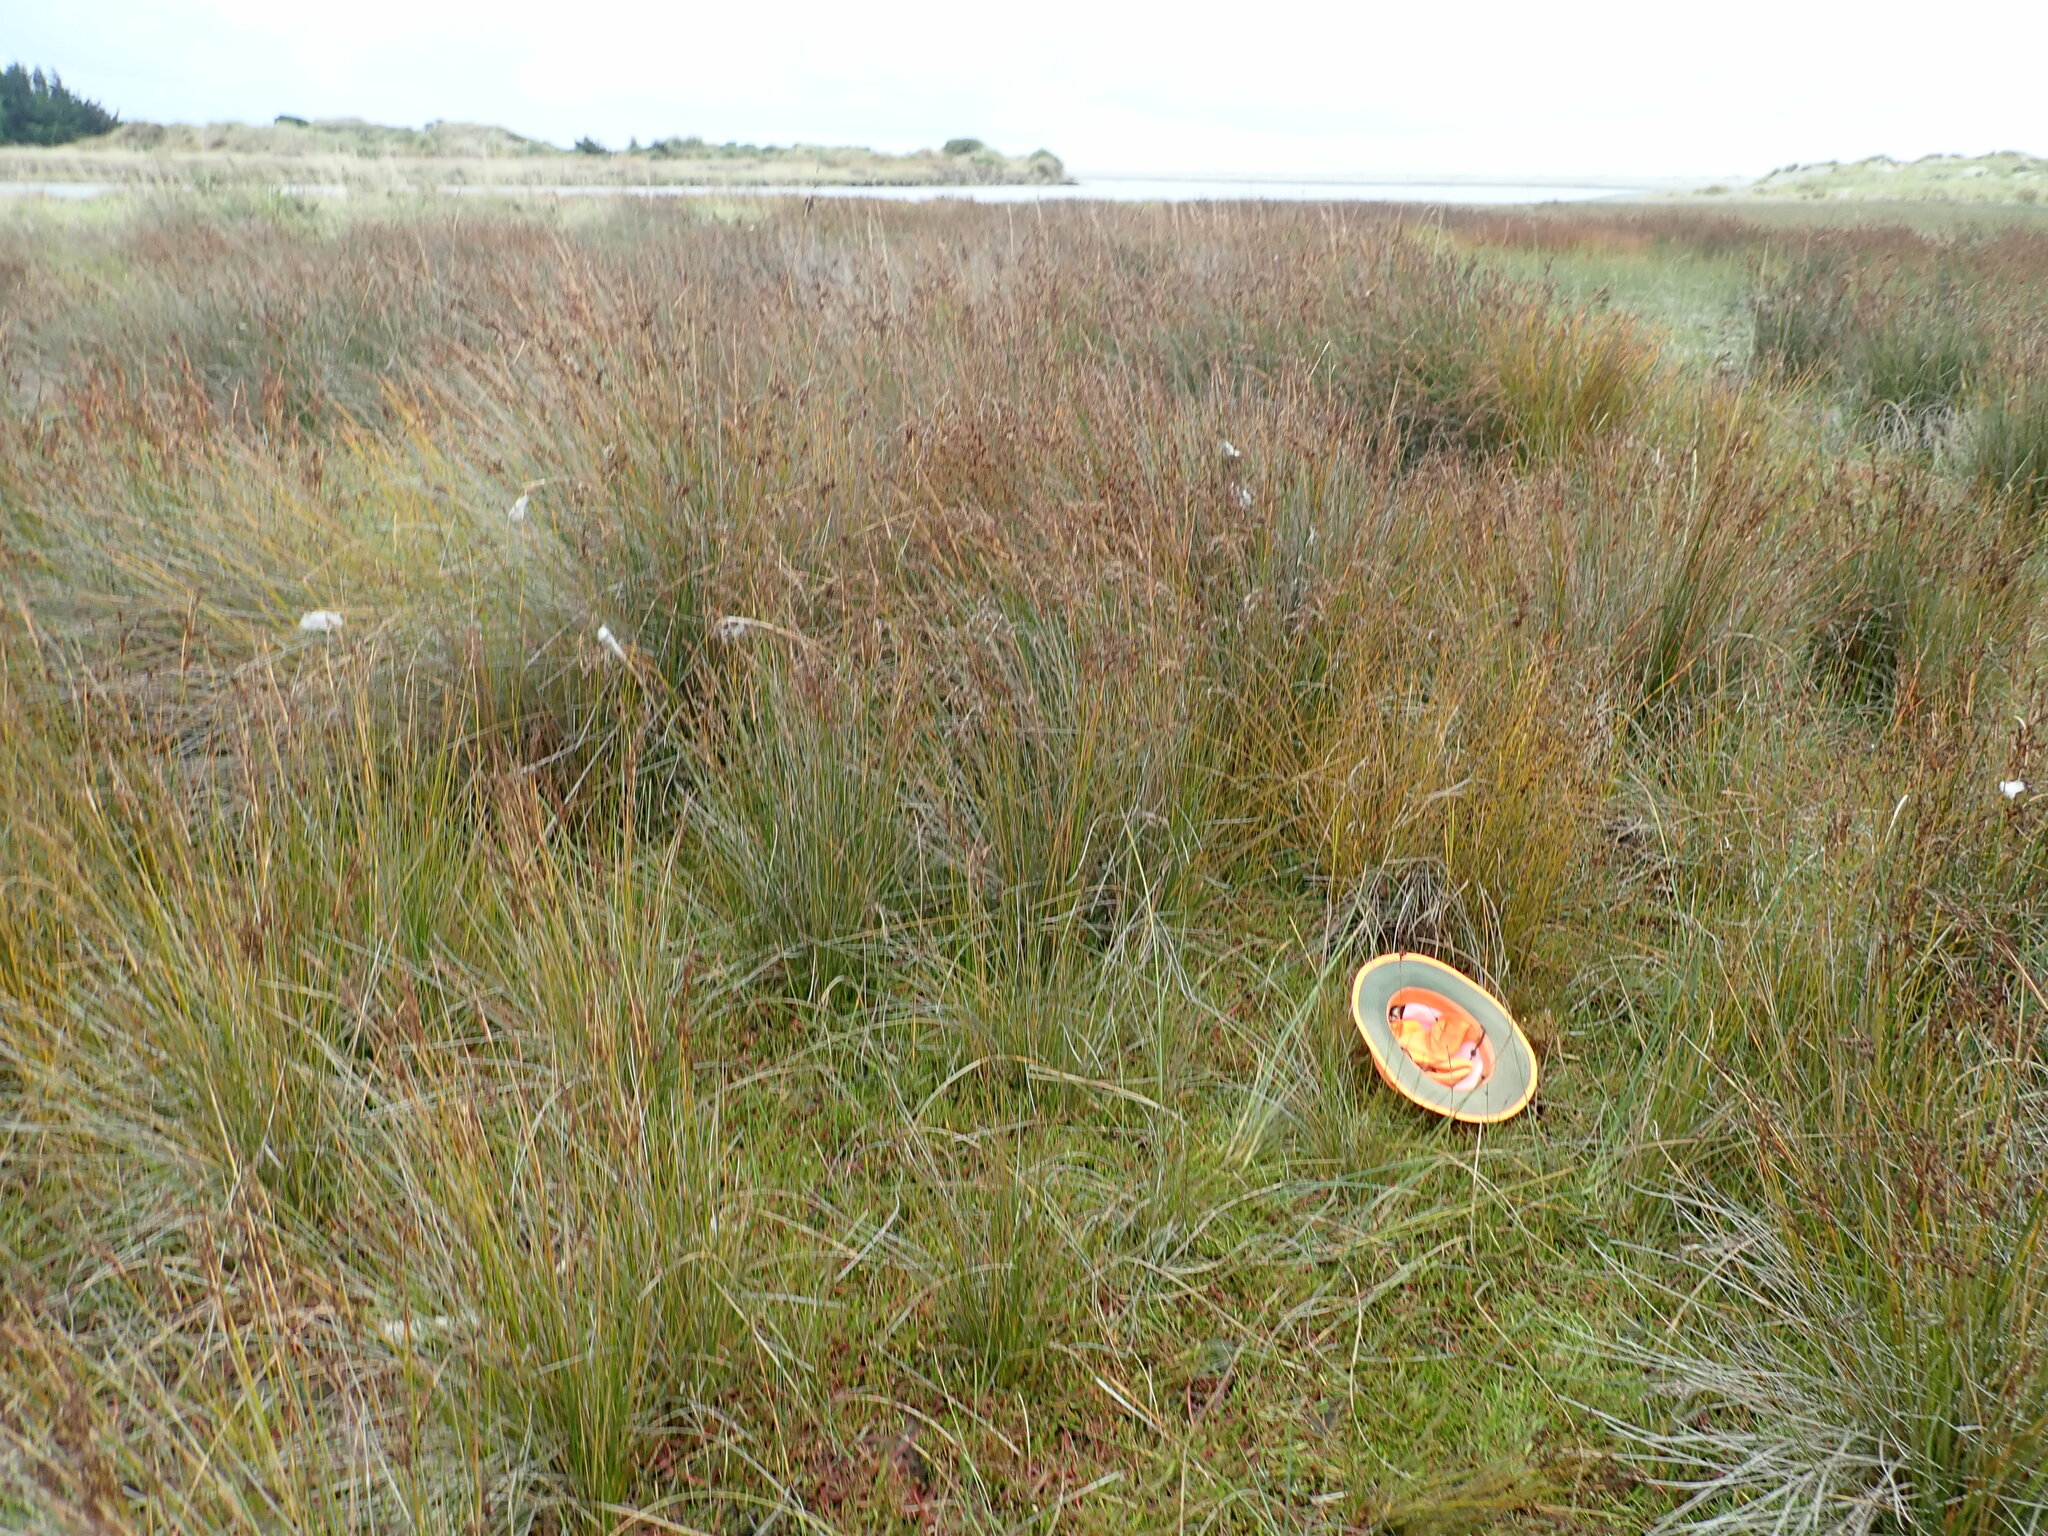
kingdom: Plantae
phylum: Tracheophyta
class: Magnoliopsida
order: Asterales
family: Asteraceae
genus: Cotula
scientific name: Cotula coronopifolia
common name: Buttonweed
